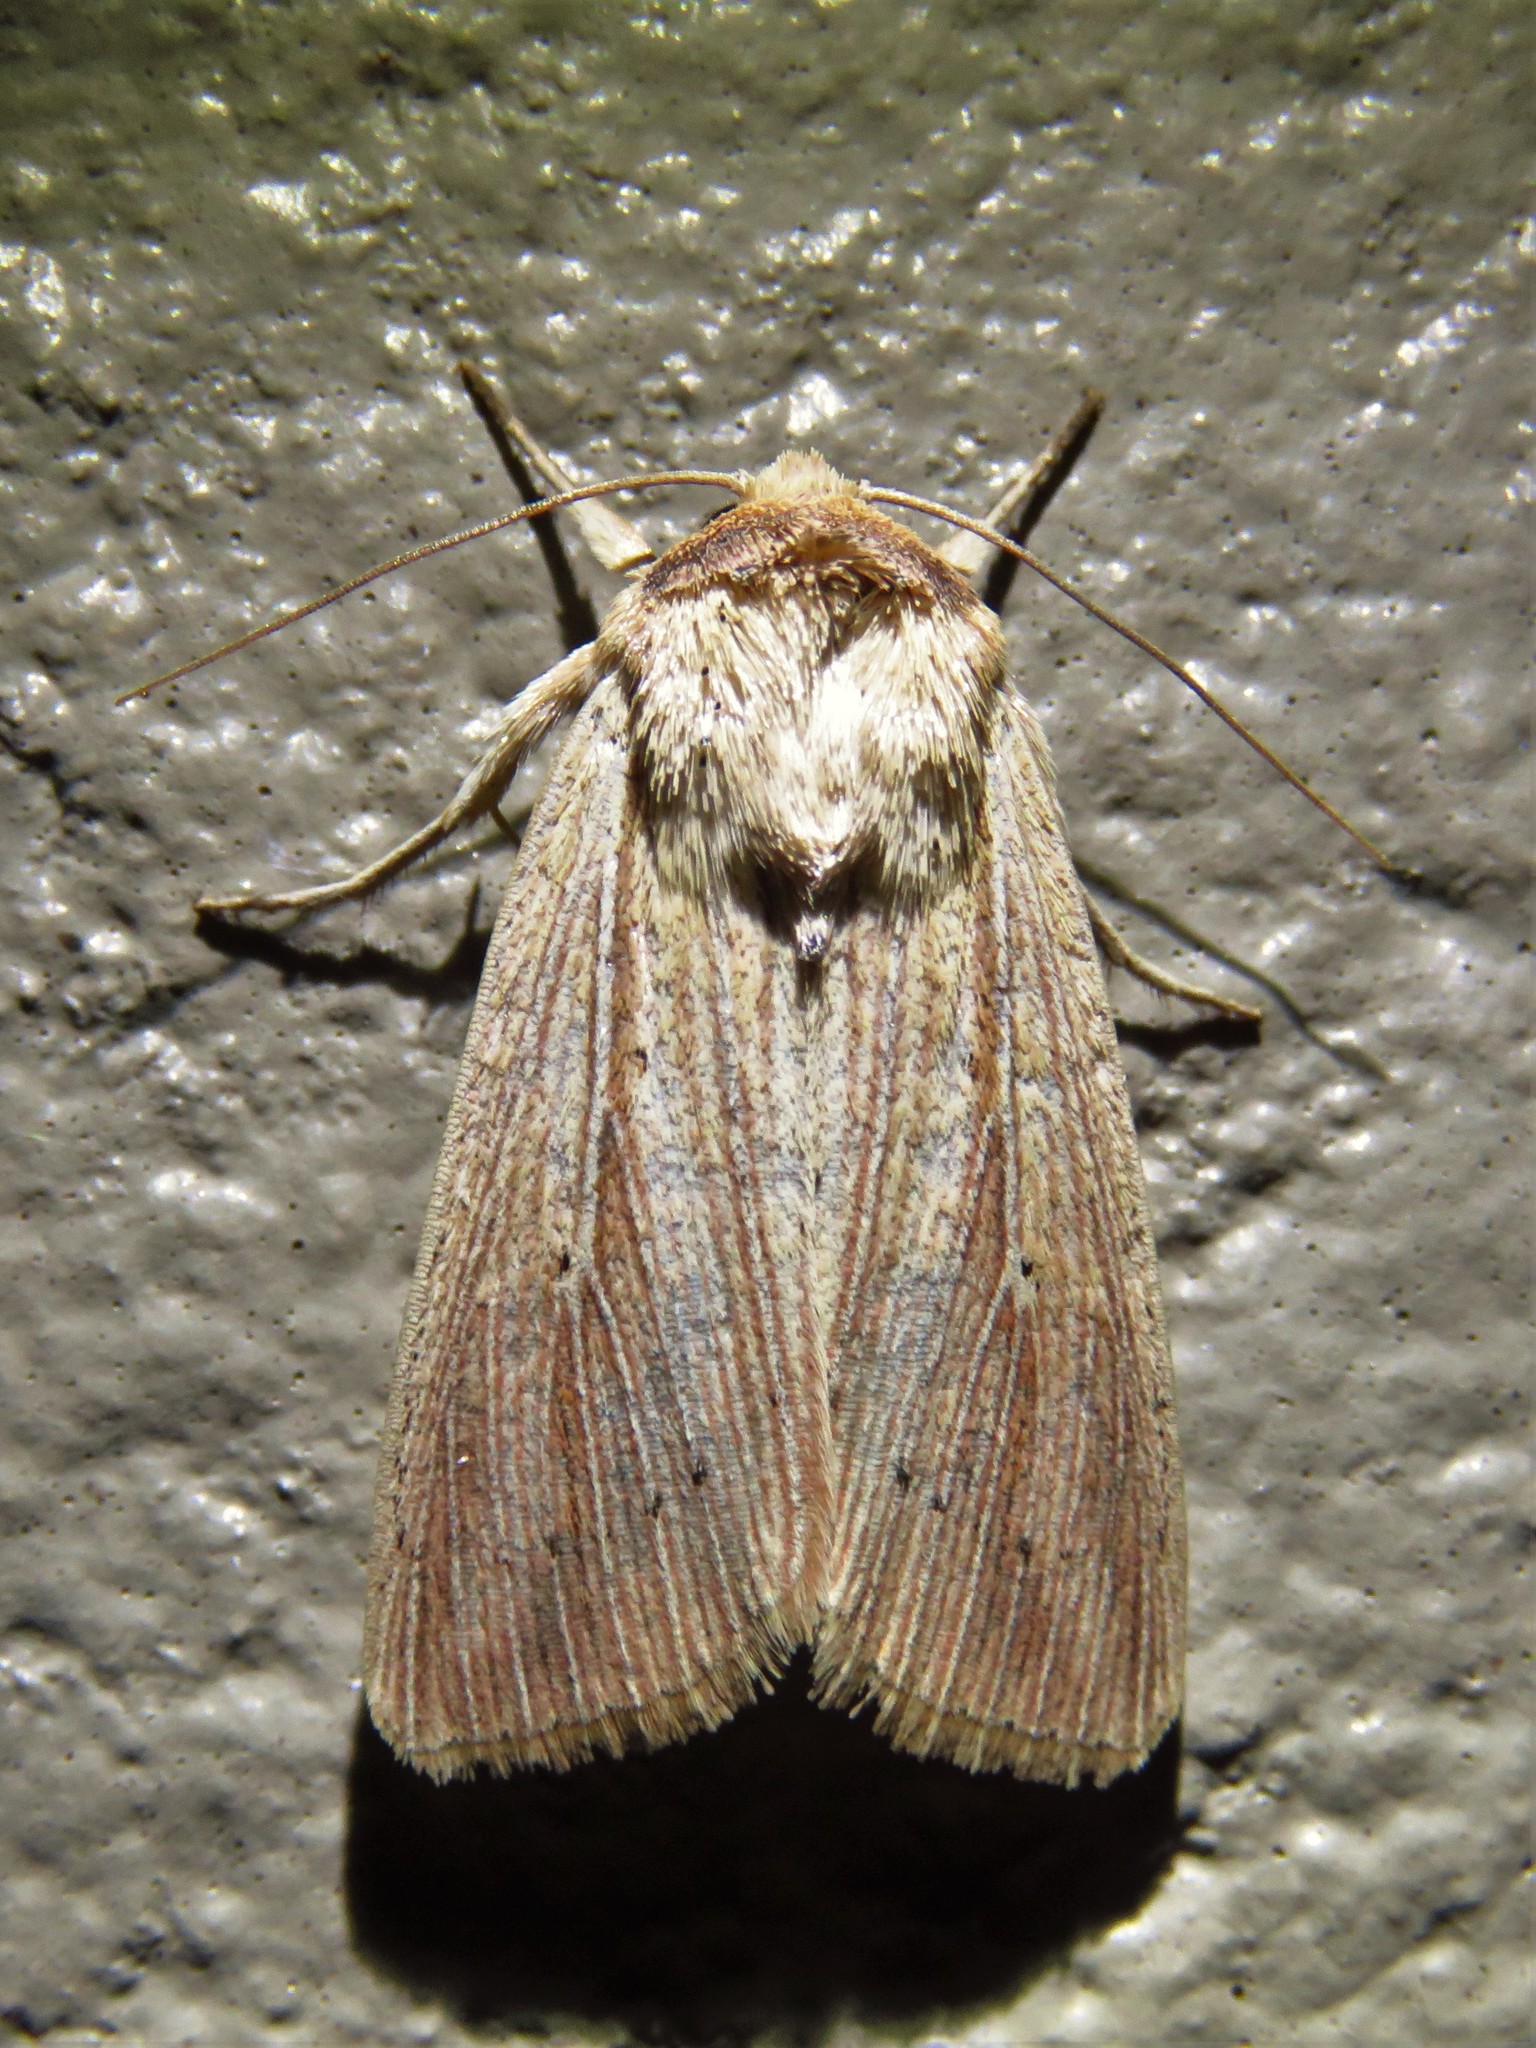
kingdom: Animalia
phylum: Arthropoda
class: Insecta
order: Lepidoptera
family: Noctuidae
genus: Leucania
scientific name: Leucania adjuta
